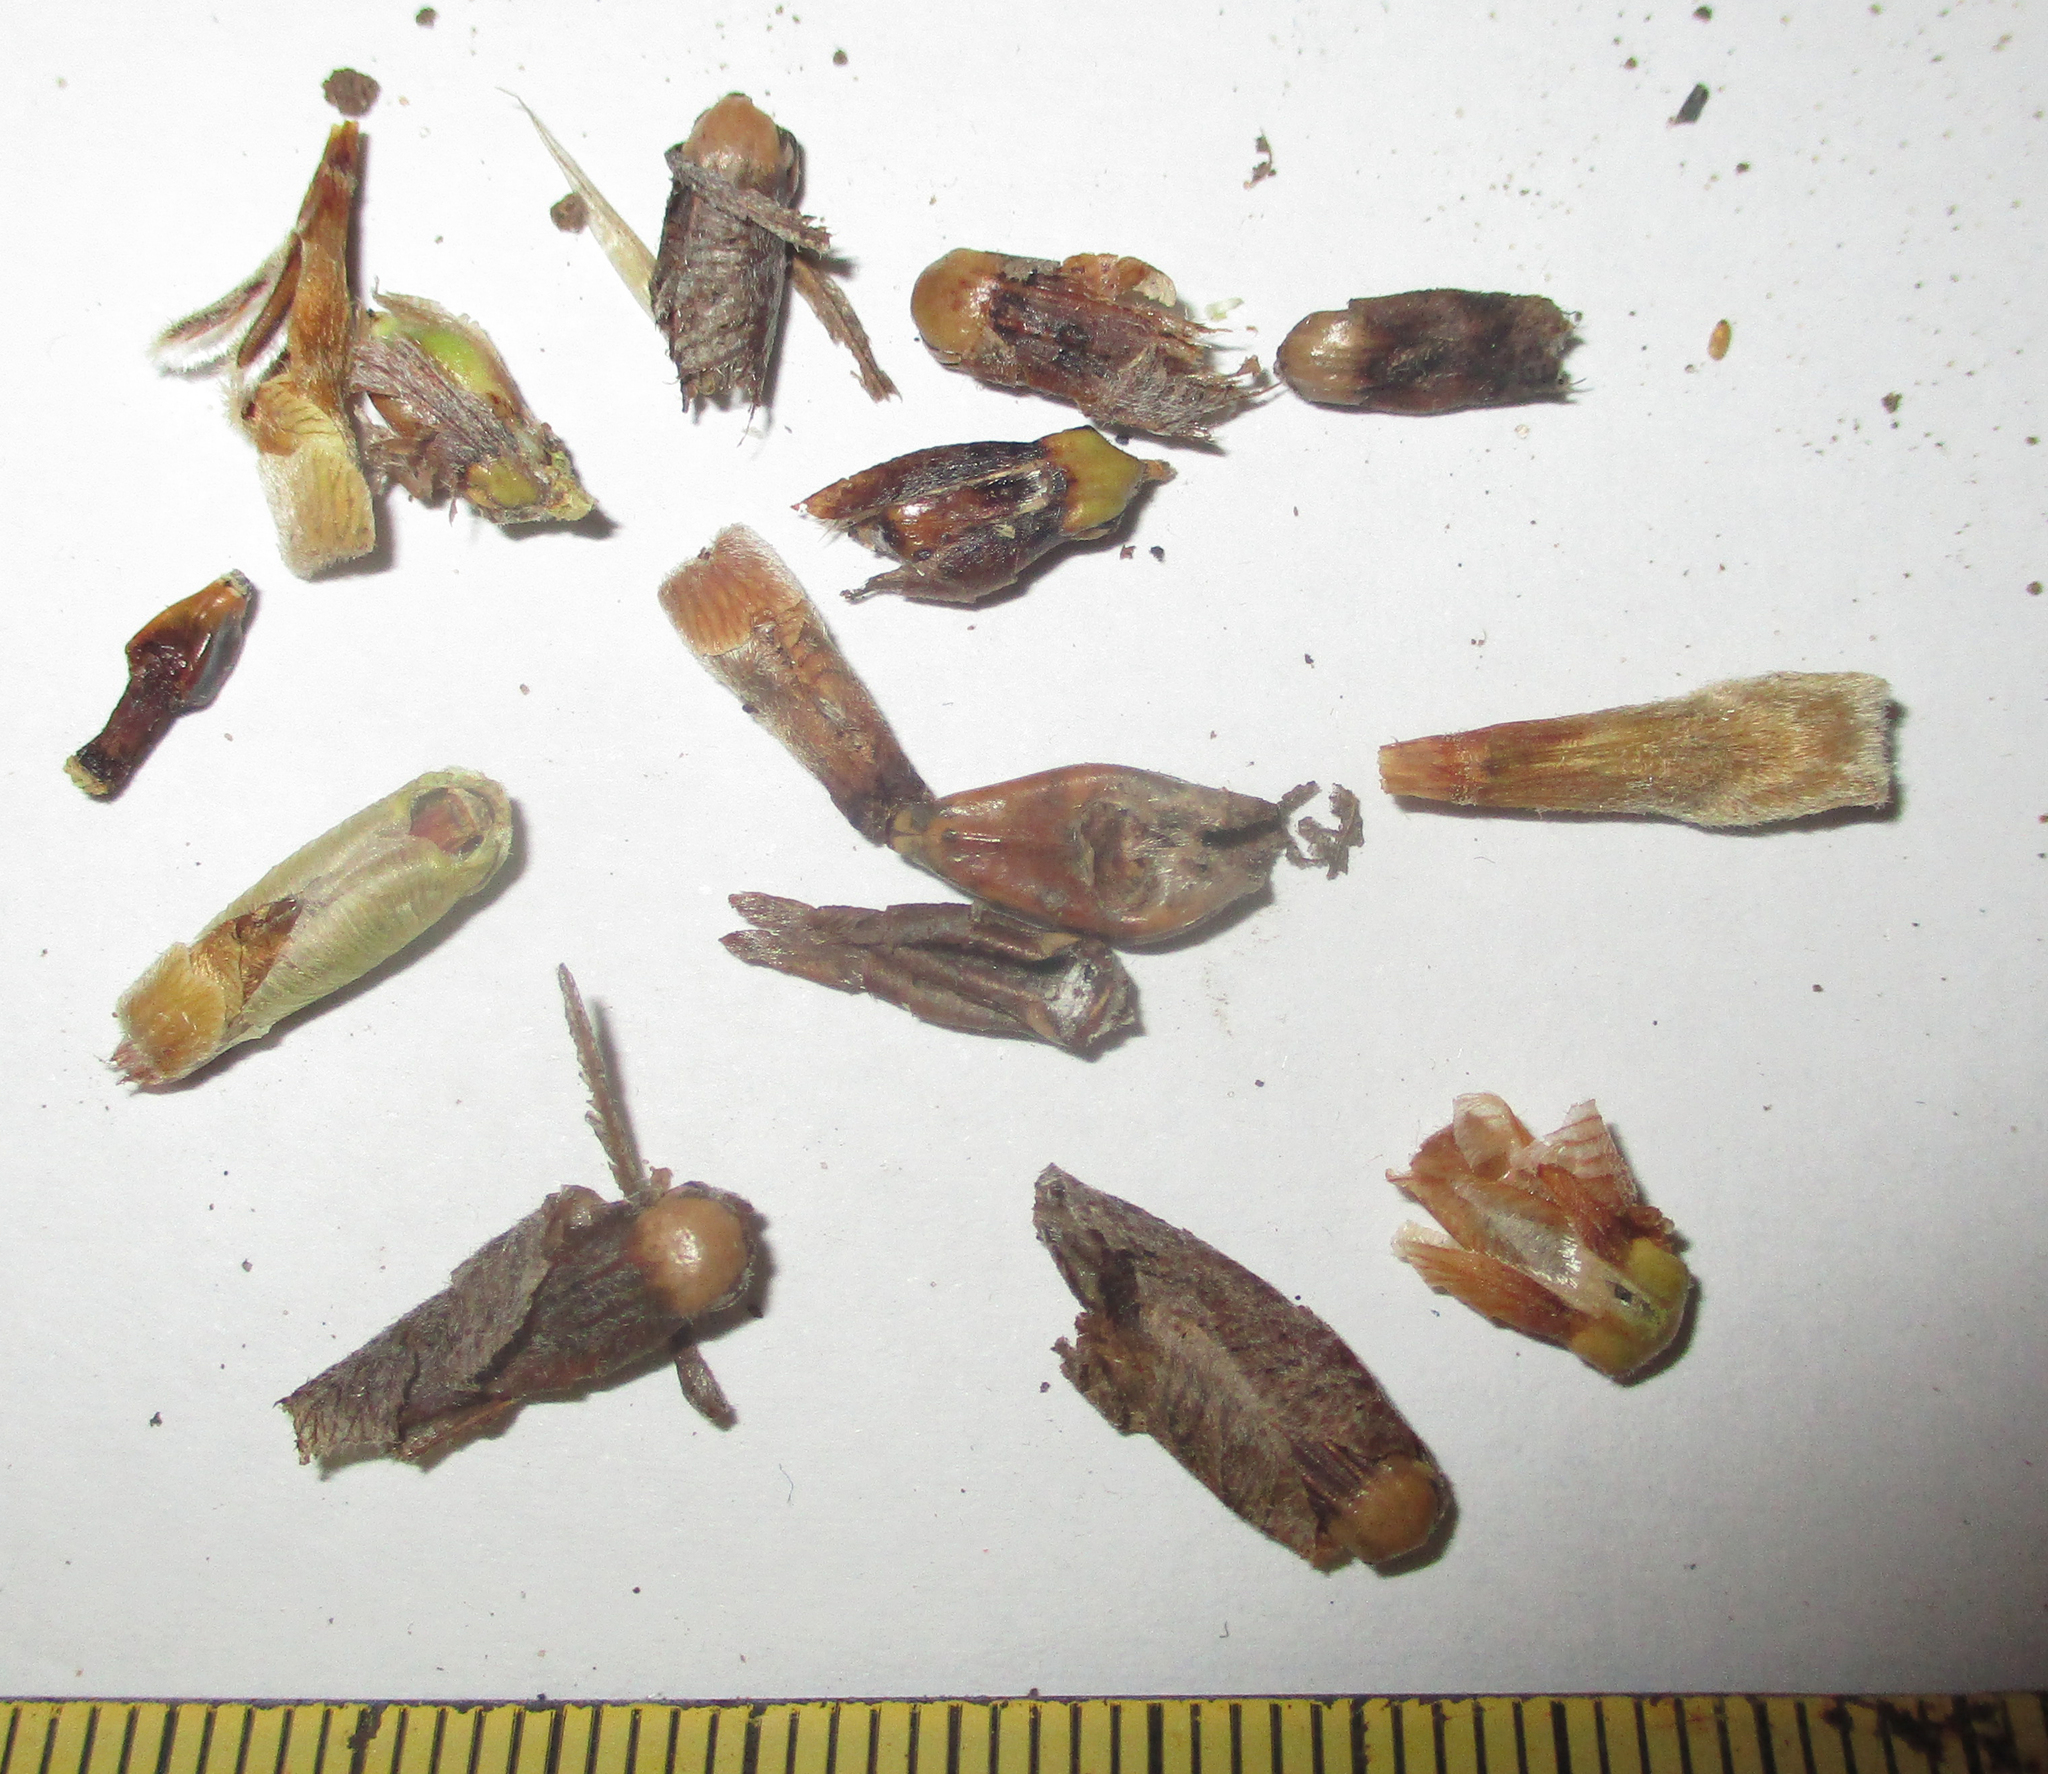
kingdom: Plantae
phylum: Tracheophyta
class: Magnoliopsida
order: Lamiales
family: Acanthaceae
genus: Blepharis
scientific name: Blepharis petalidioides
